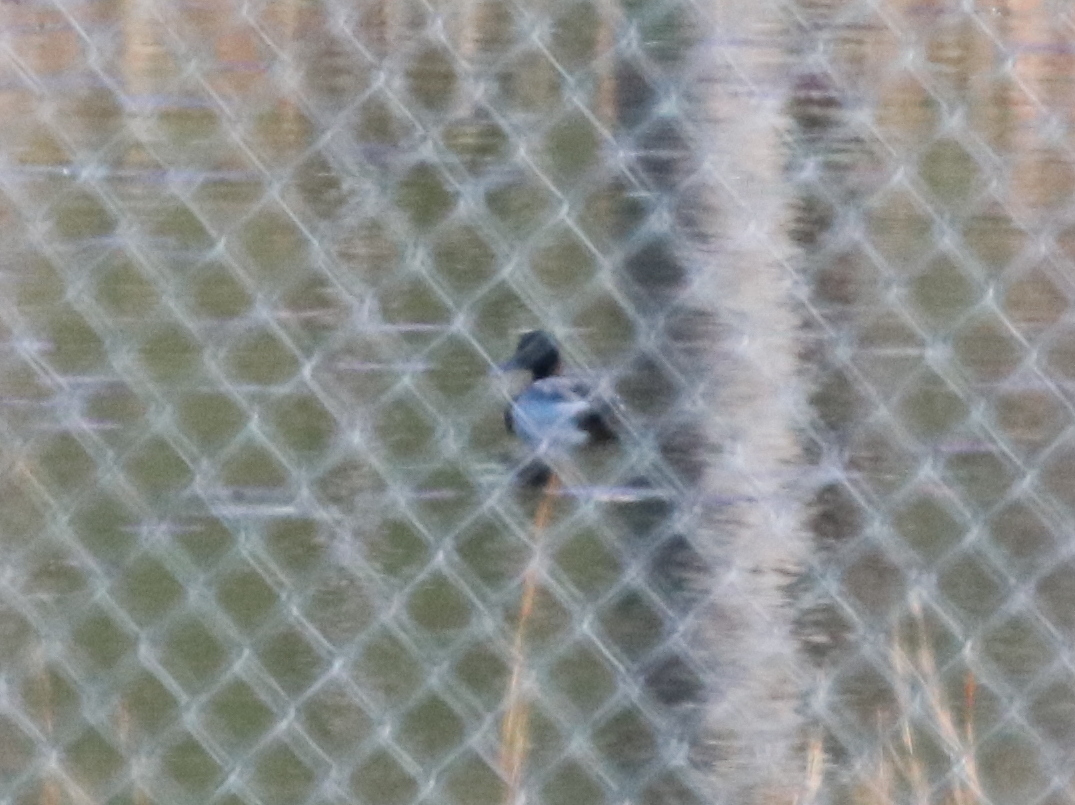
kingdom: Animalia
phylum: Chordata
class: Aves
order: Anseriformes
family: Anatidae
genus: Anas
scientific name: Anas platyrhynchos
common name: Mallard
